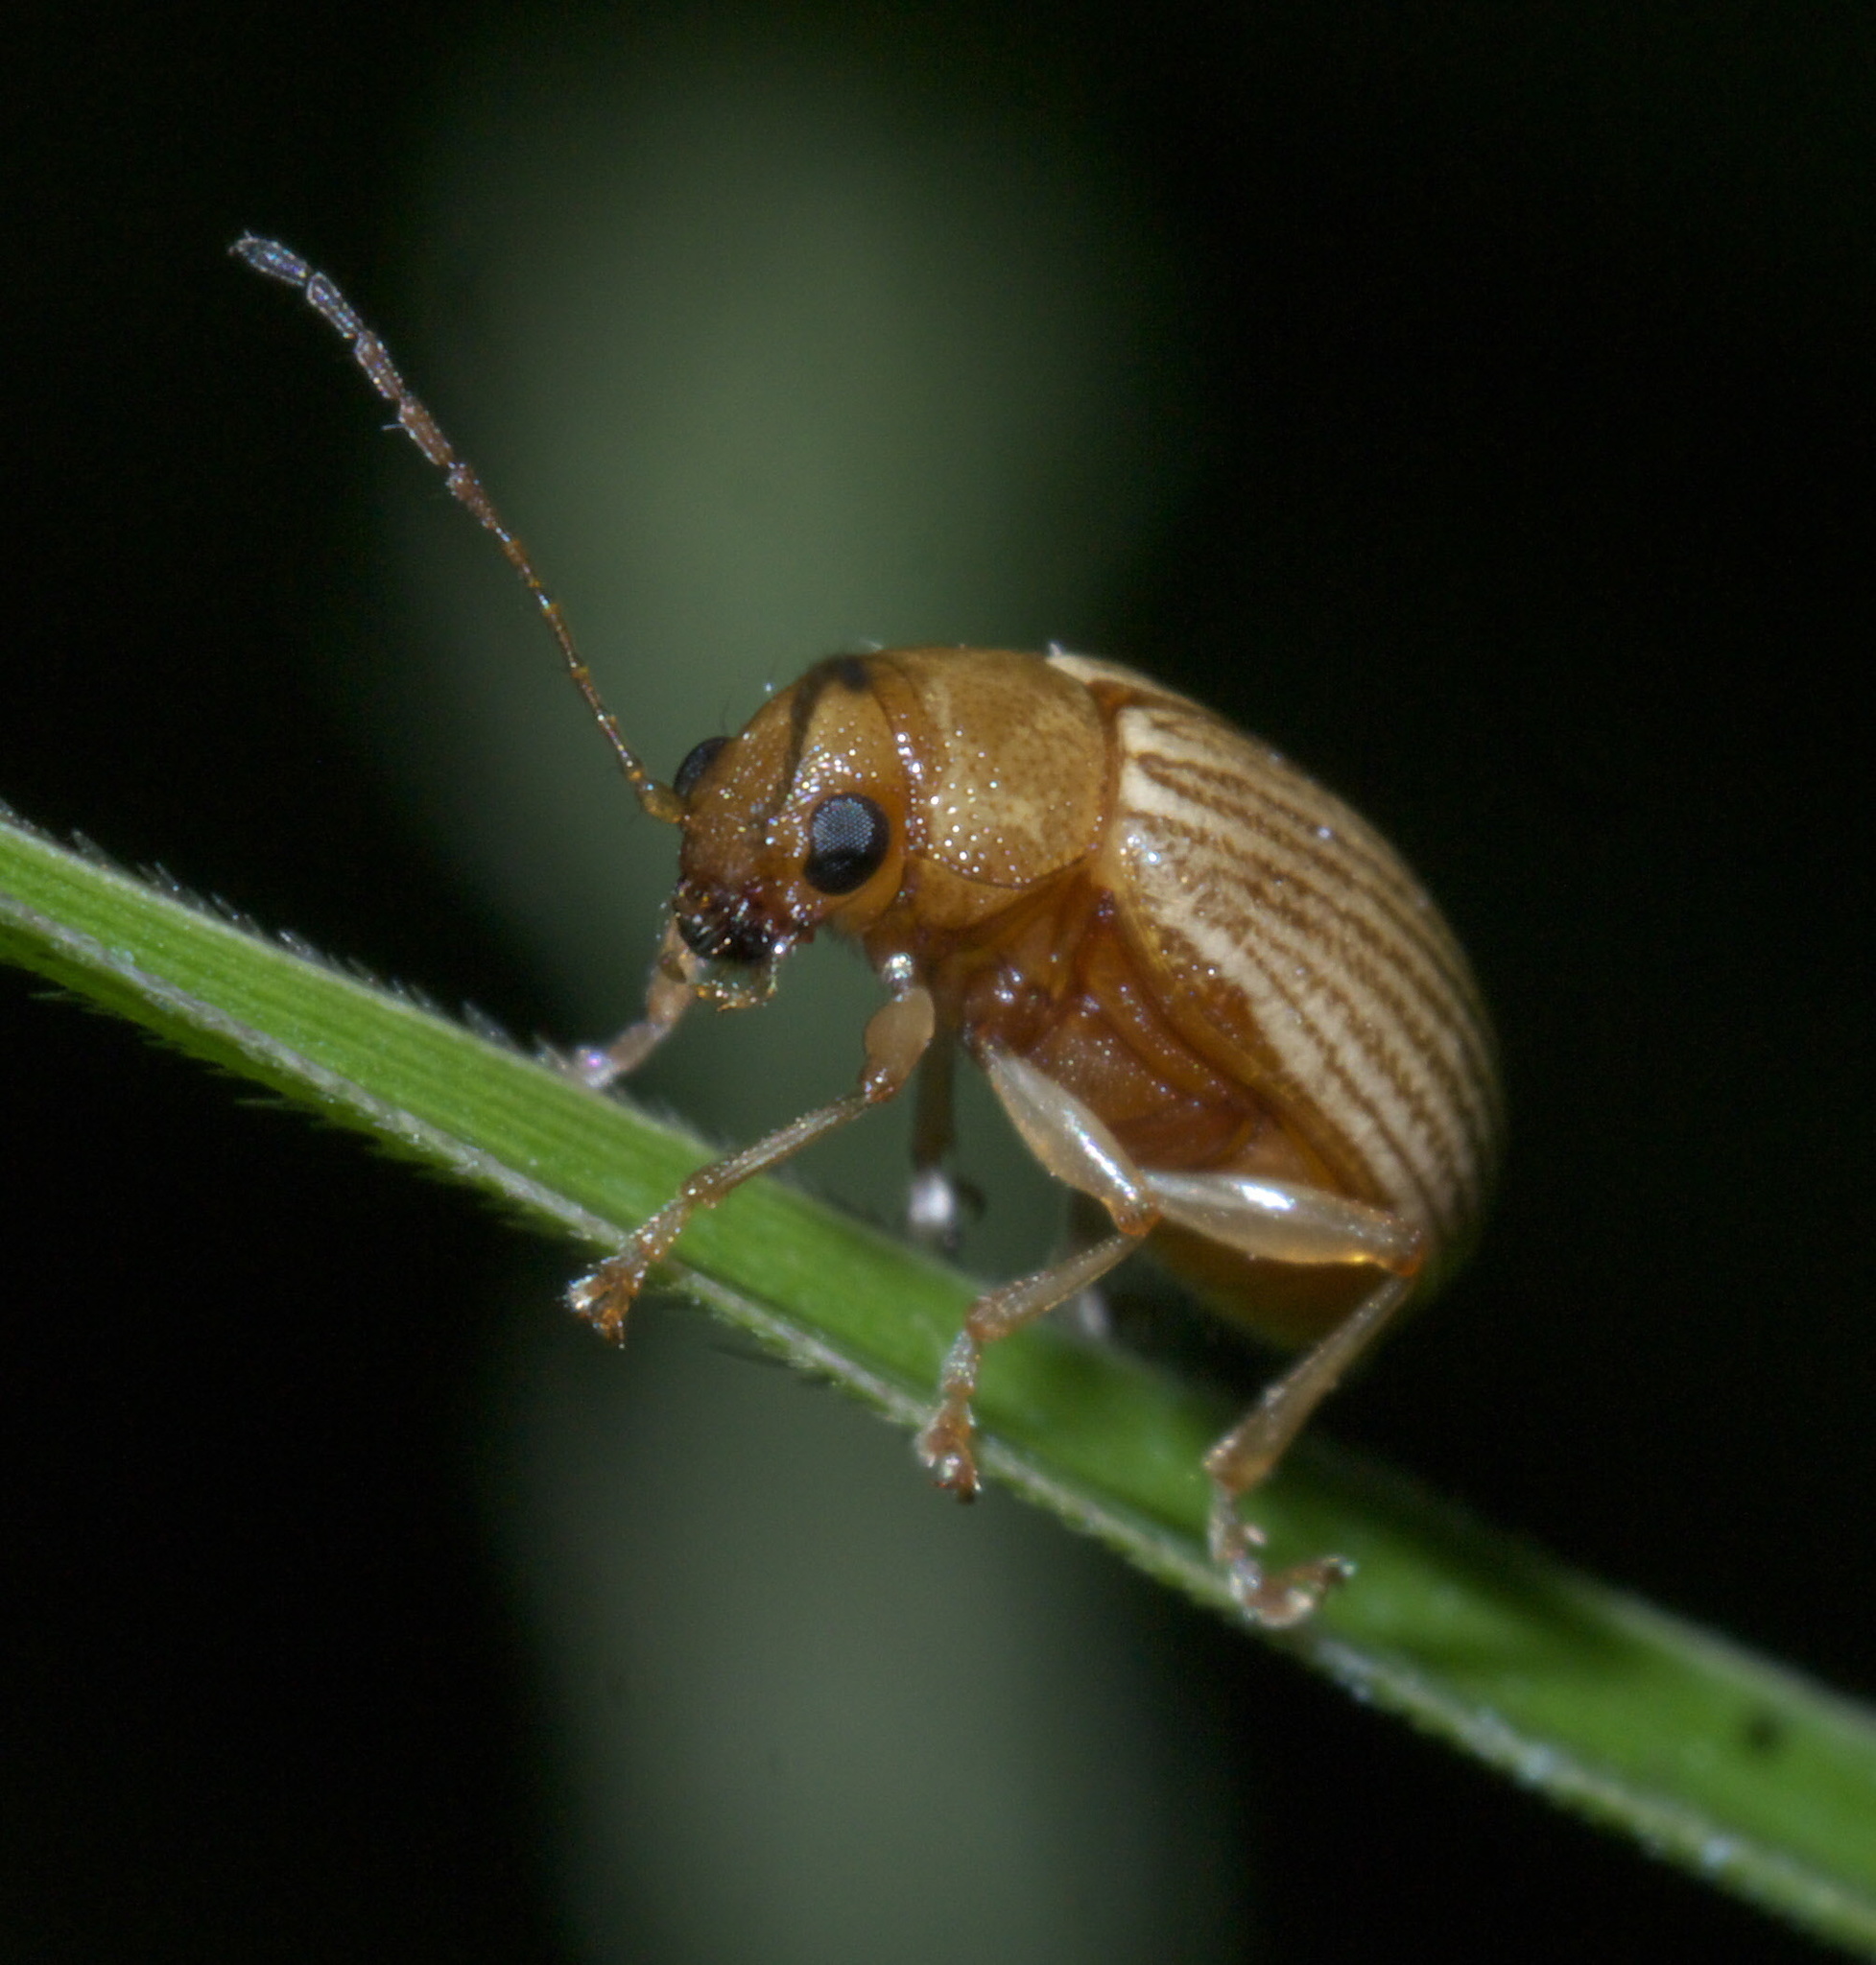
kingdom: Animalia
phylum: Arthropoda
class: Insecta
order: Coleoptera
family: Chrysomelidae
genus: Colaspis
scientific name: Colaspis brunnea
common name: Grape colaspis
